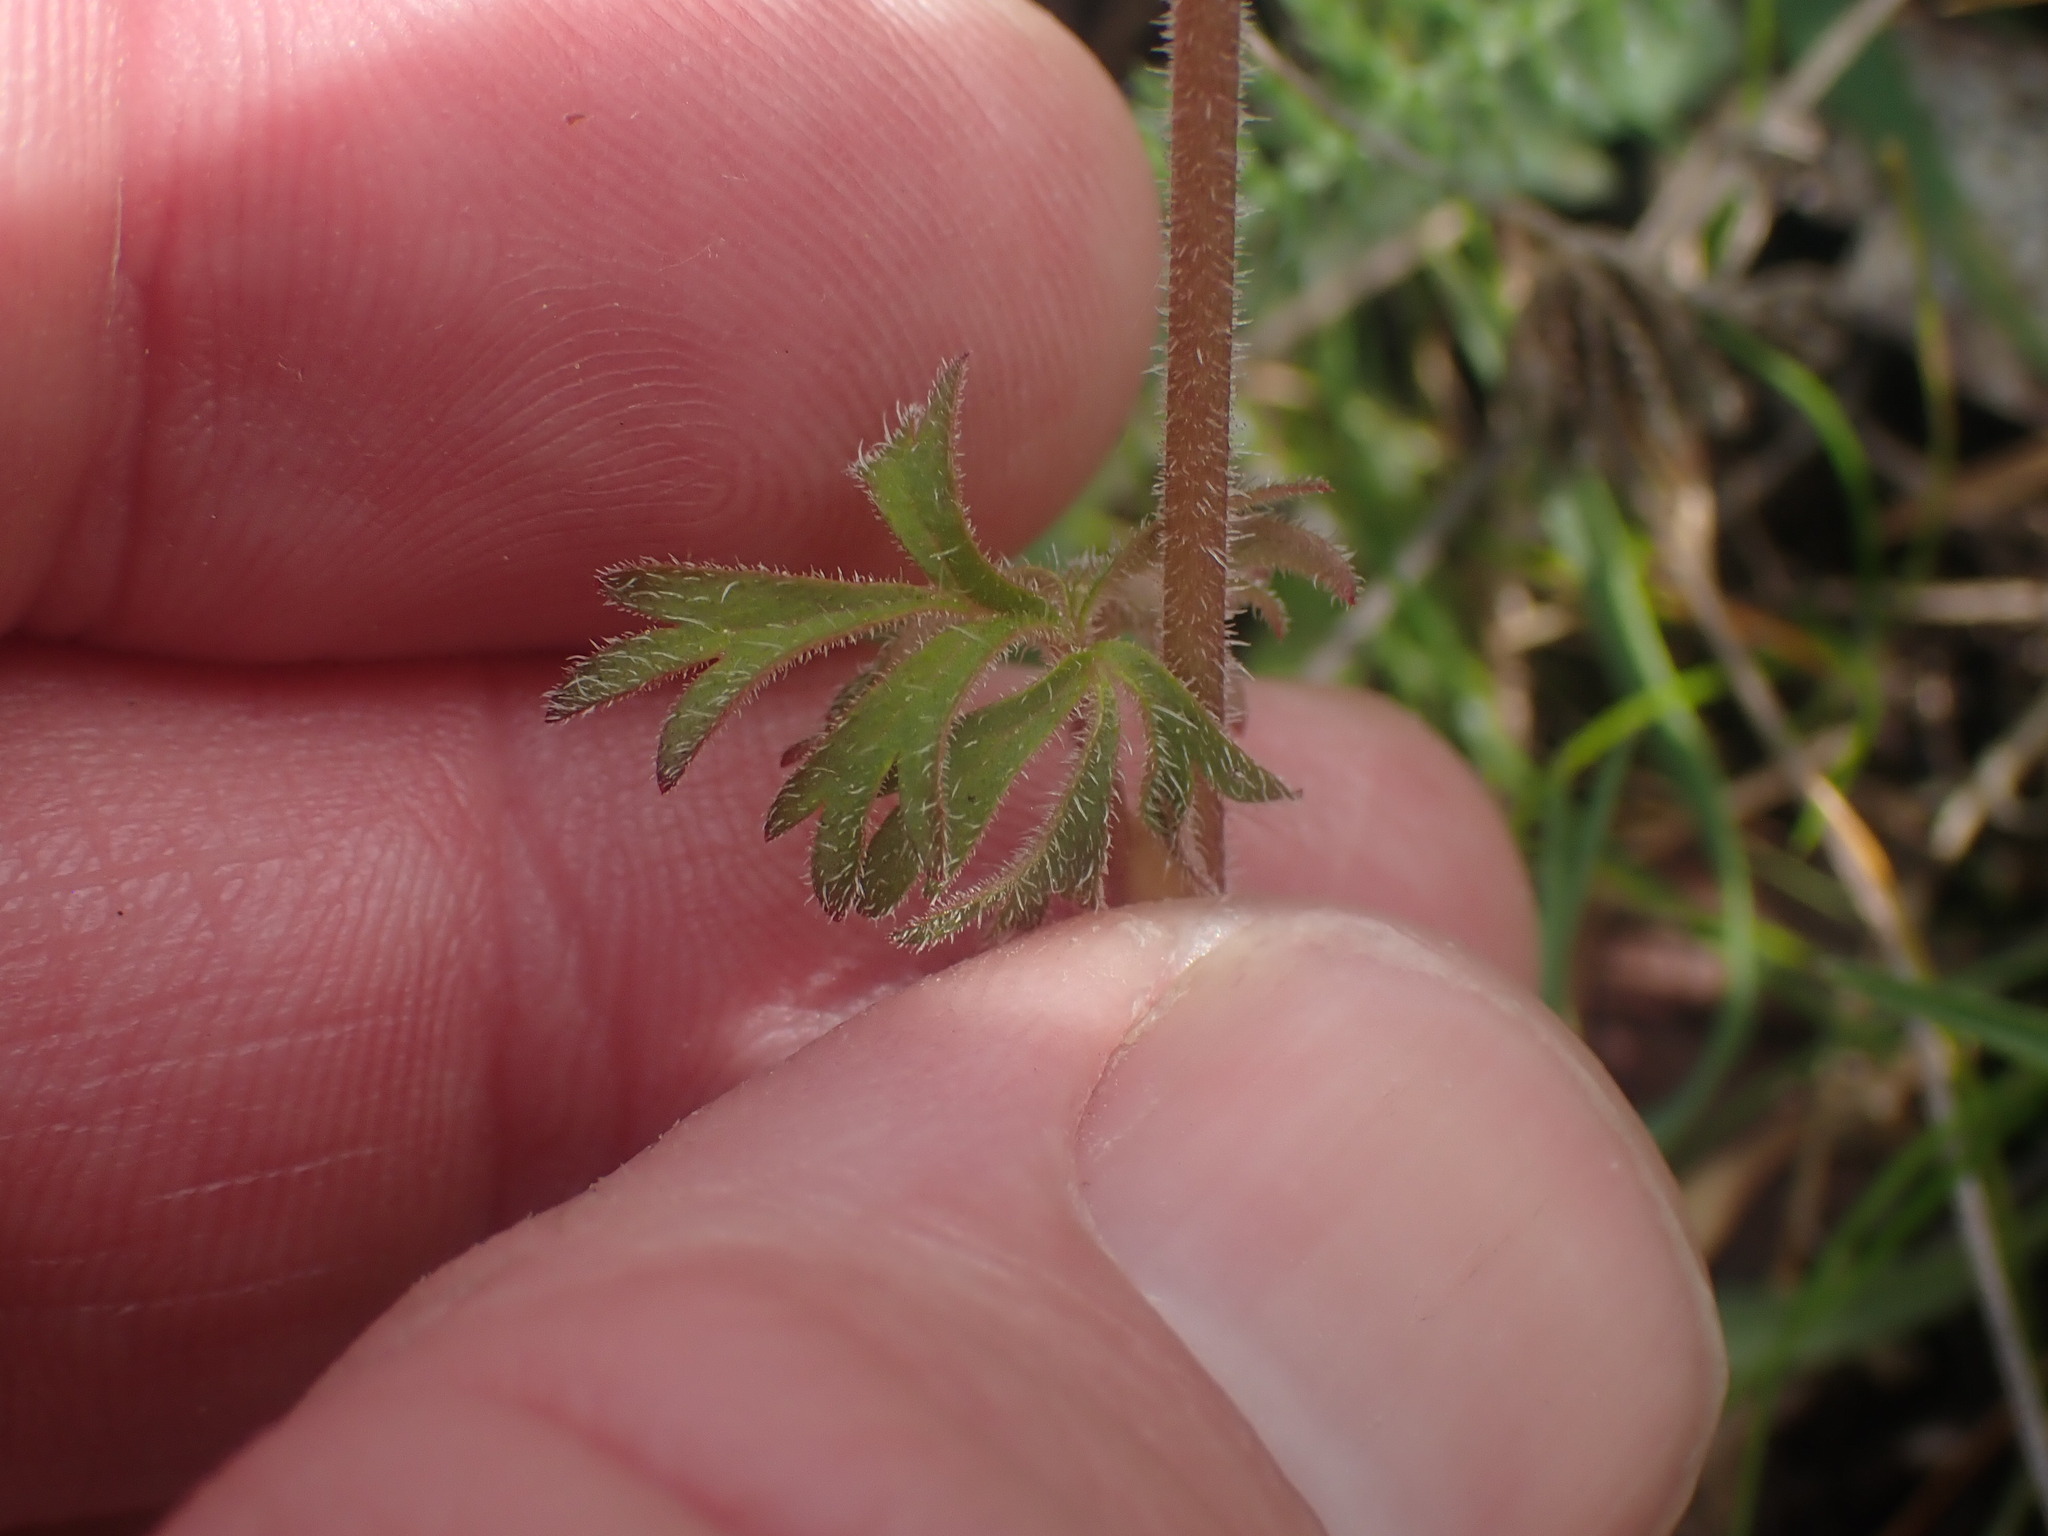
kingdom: Plantae
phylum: Tracheophyta
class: Magnoliopsida
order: Saxifragales
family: Saxifragaceae
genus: Lithophragma
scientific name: Lithophragma parviflorum
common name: Small-flowered fringe-cup
